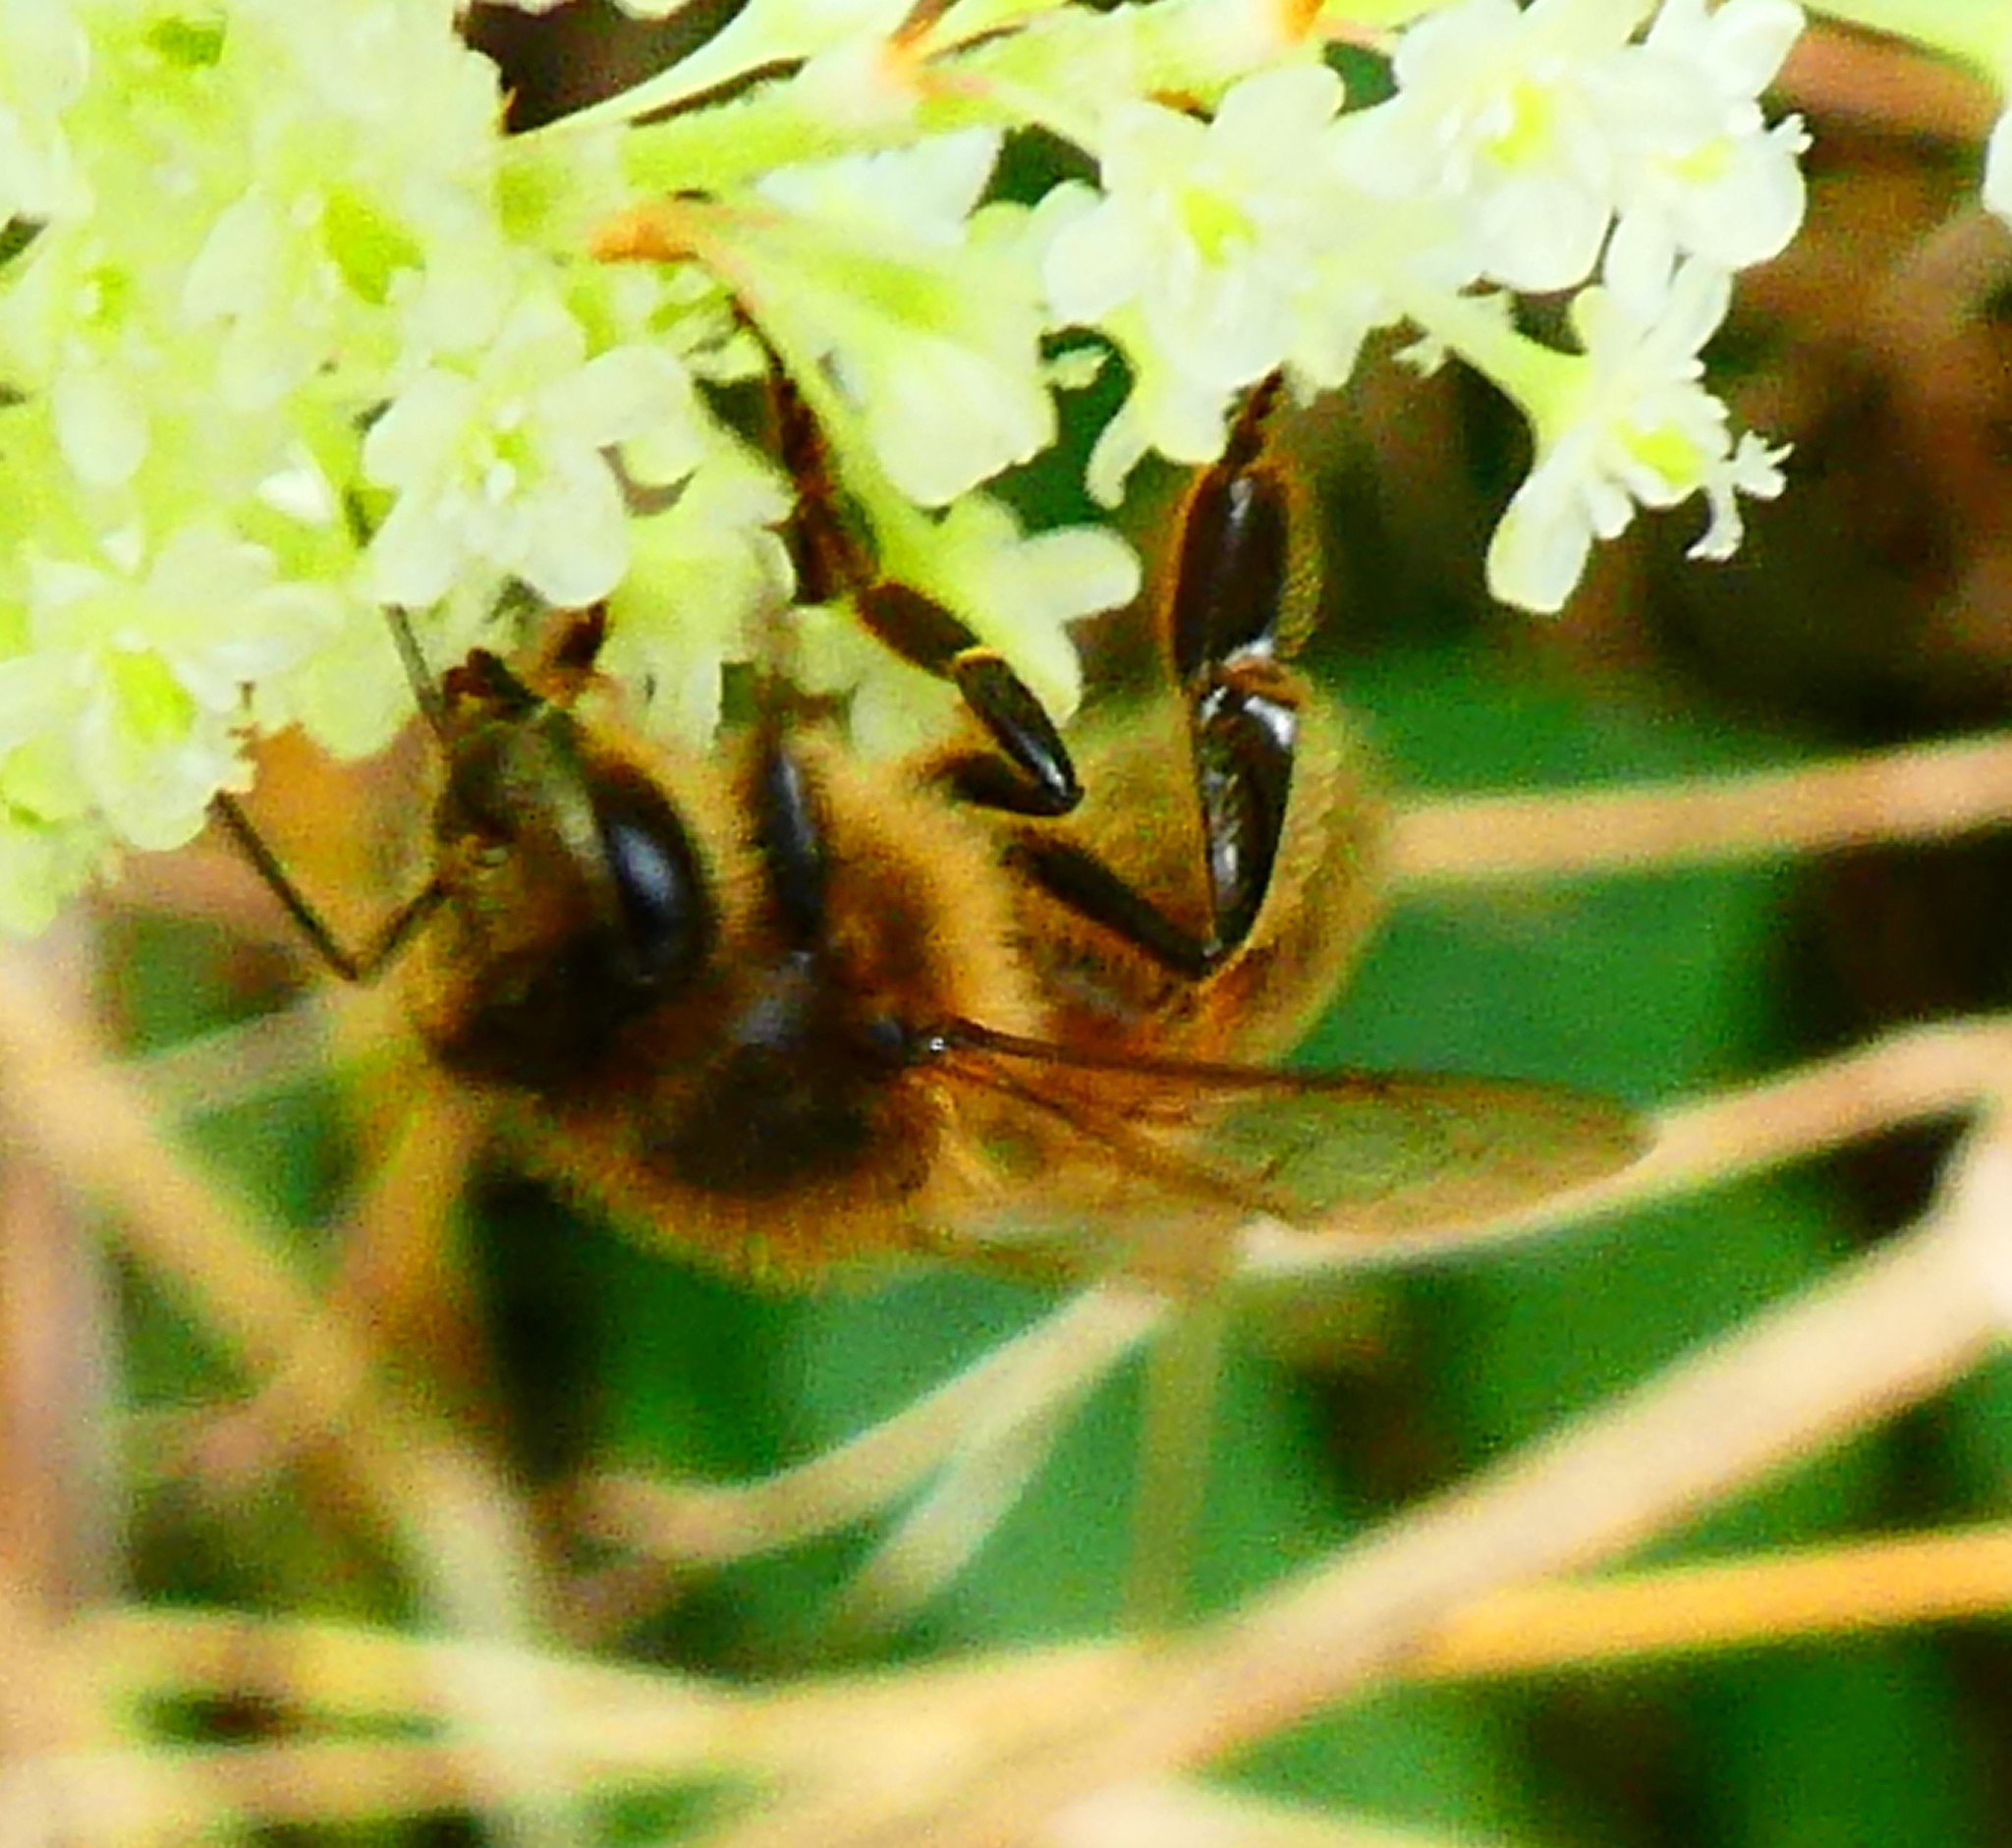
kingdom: Animalia
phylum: Arthropoda
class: Insecta
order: Hymenoptera
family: Apidae
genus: Apis
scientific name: Apis mellifera
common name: Honey bee
